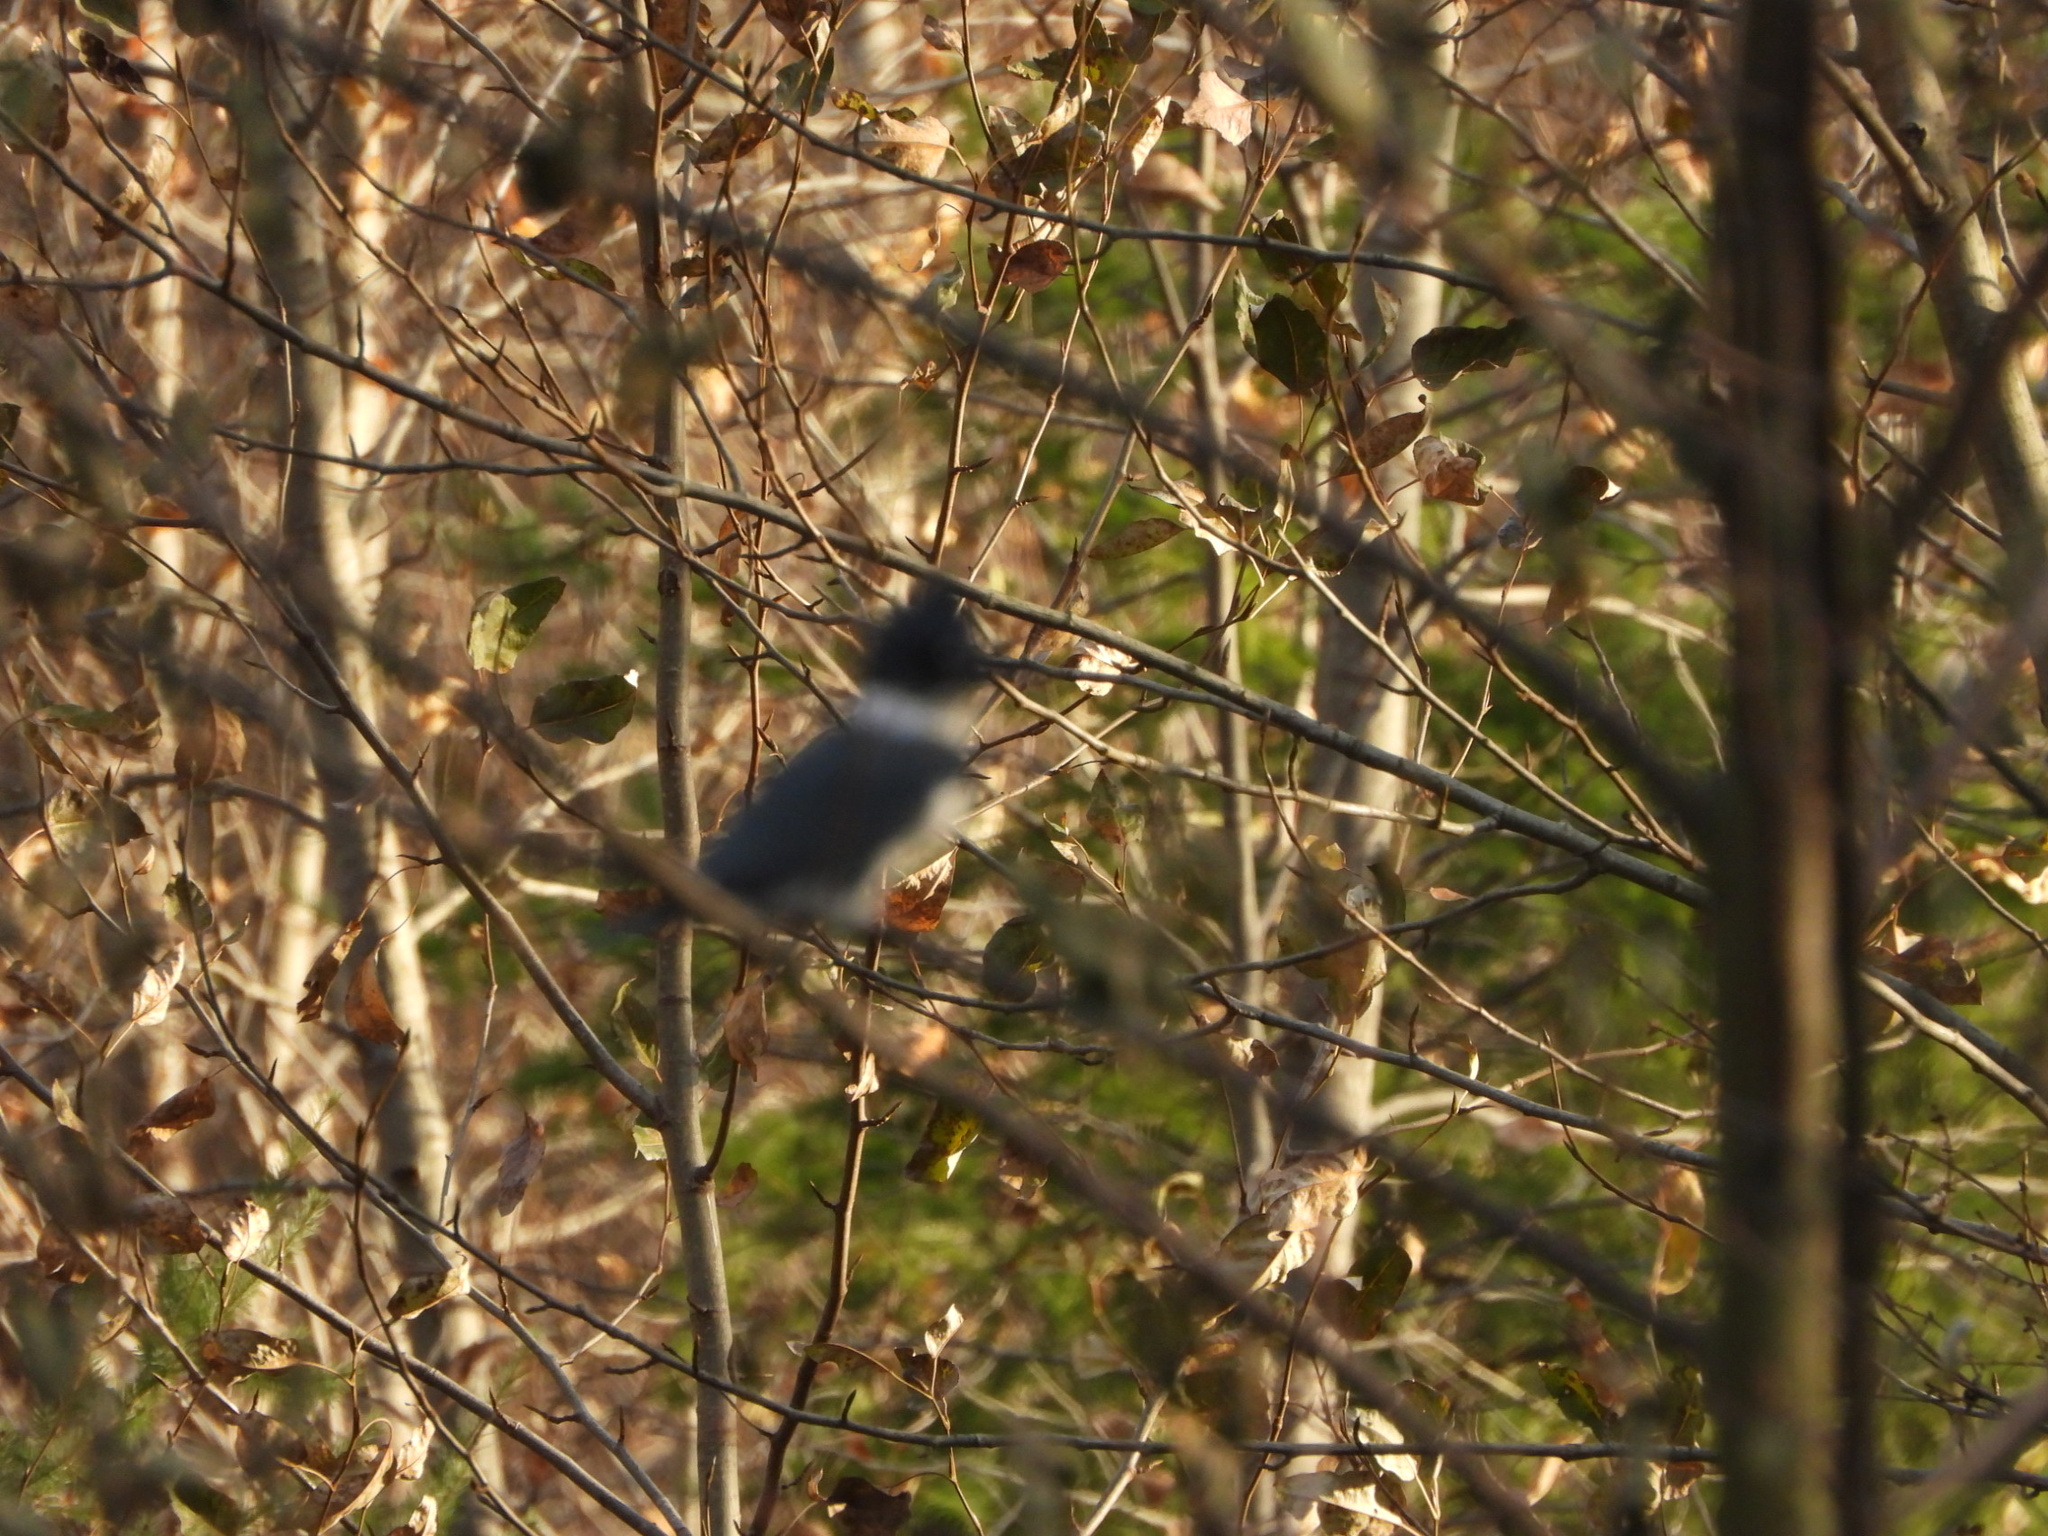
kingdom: Animalia
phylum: Chordata
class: Aves
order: Coraciiformes
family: Alcedinidae
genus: Megaceryle
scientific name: Megaceryle alcyon
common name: Belted kingfisher
